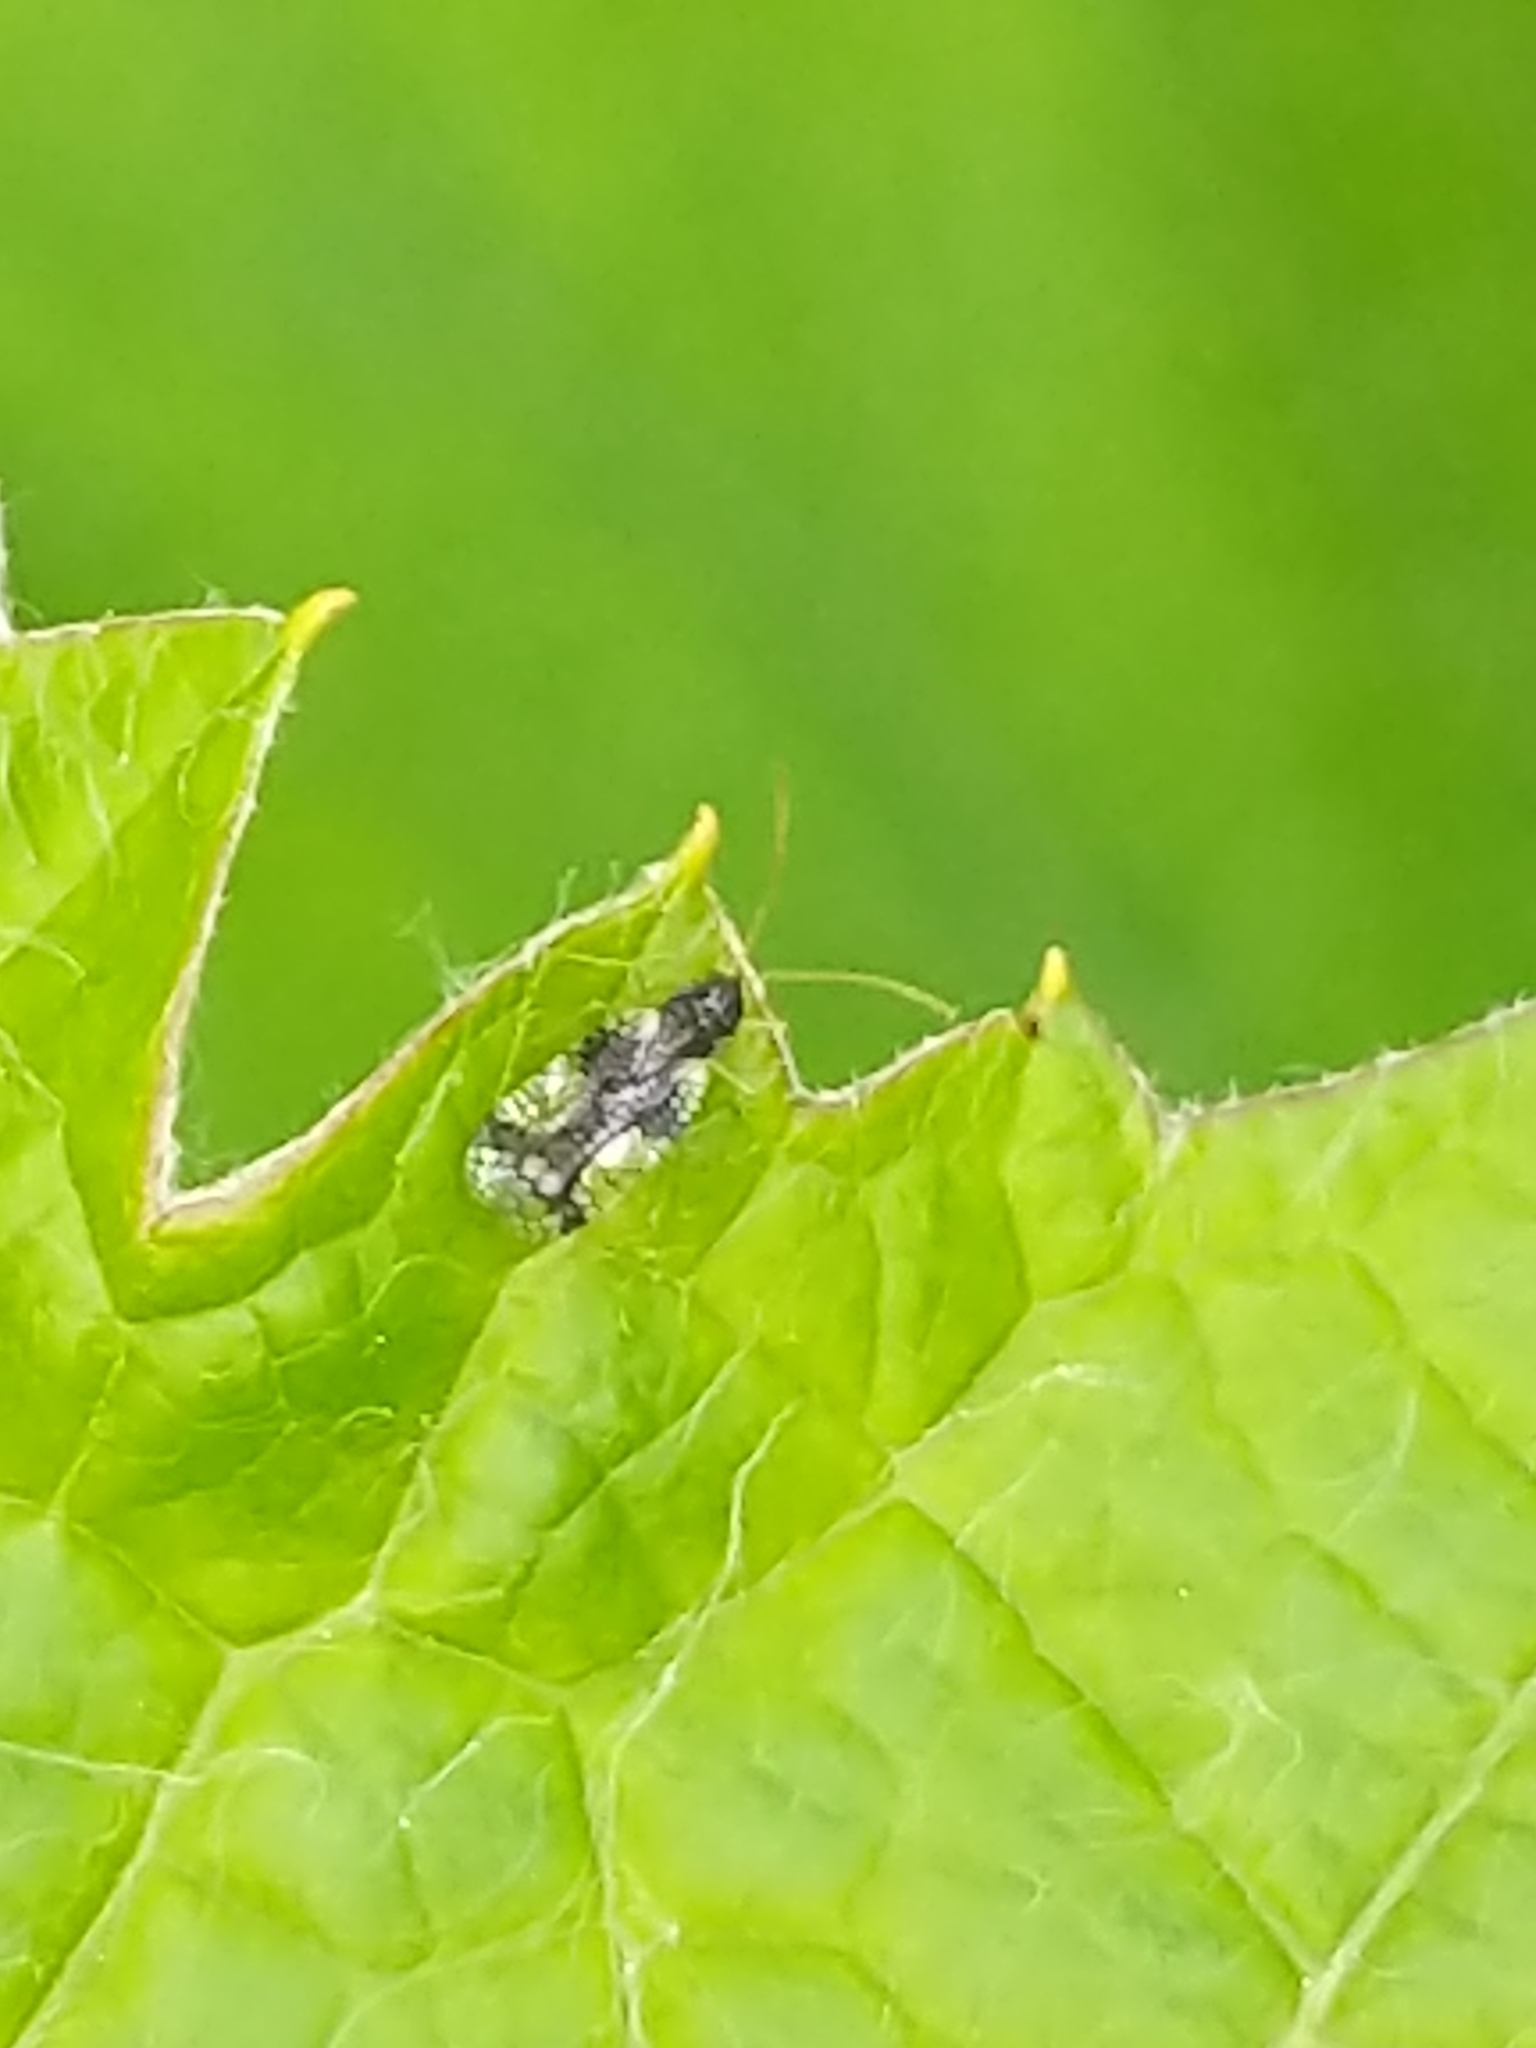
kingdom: Animalia
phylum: Arthropoda
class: Insecta
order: Hemiptera
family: Tingidae
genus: Stephanitis
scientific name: Stephanitis takeyai
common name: Andromeda lacebug
